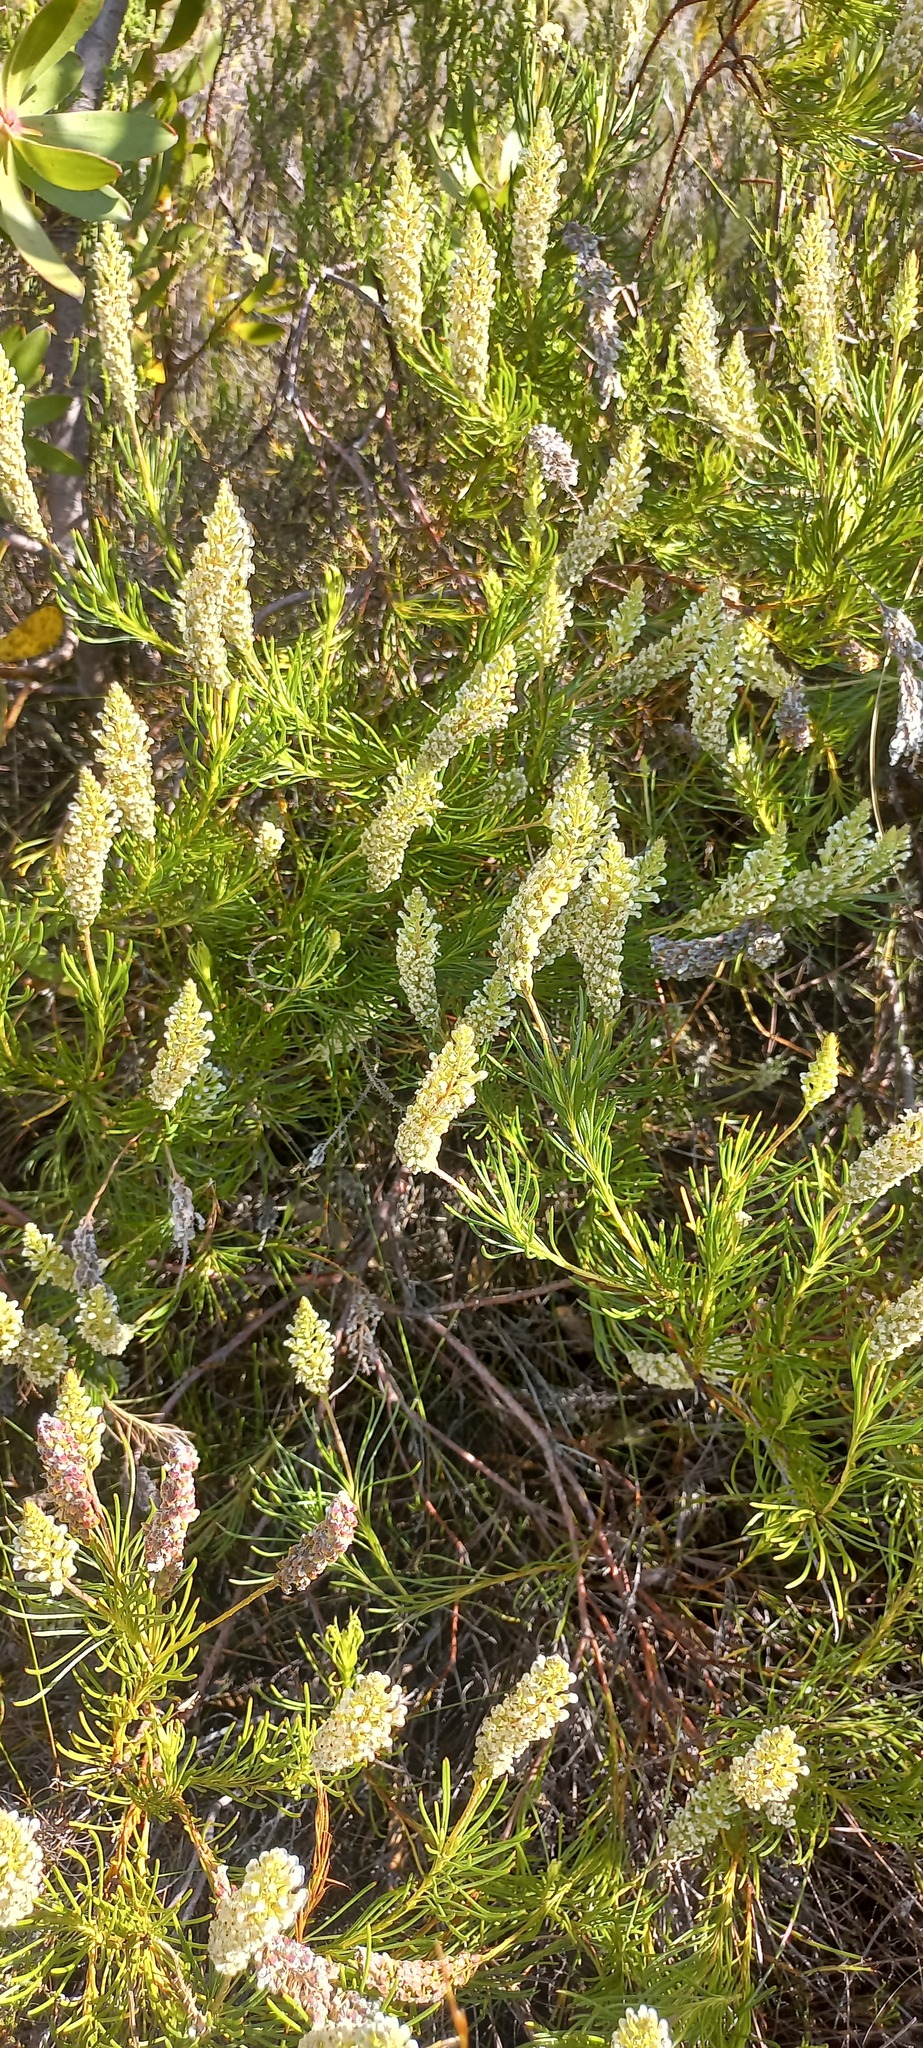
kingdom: Plantae
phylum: Tracheophyta
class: Magnoliopsida
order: Proteales
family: Proteaceae
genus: Spatalla
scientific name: Spatalla curvifolia
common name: White-stalked spoon
